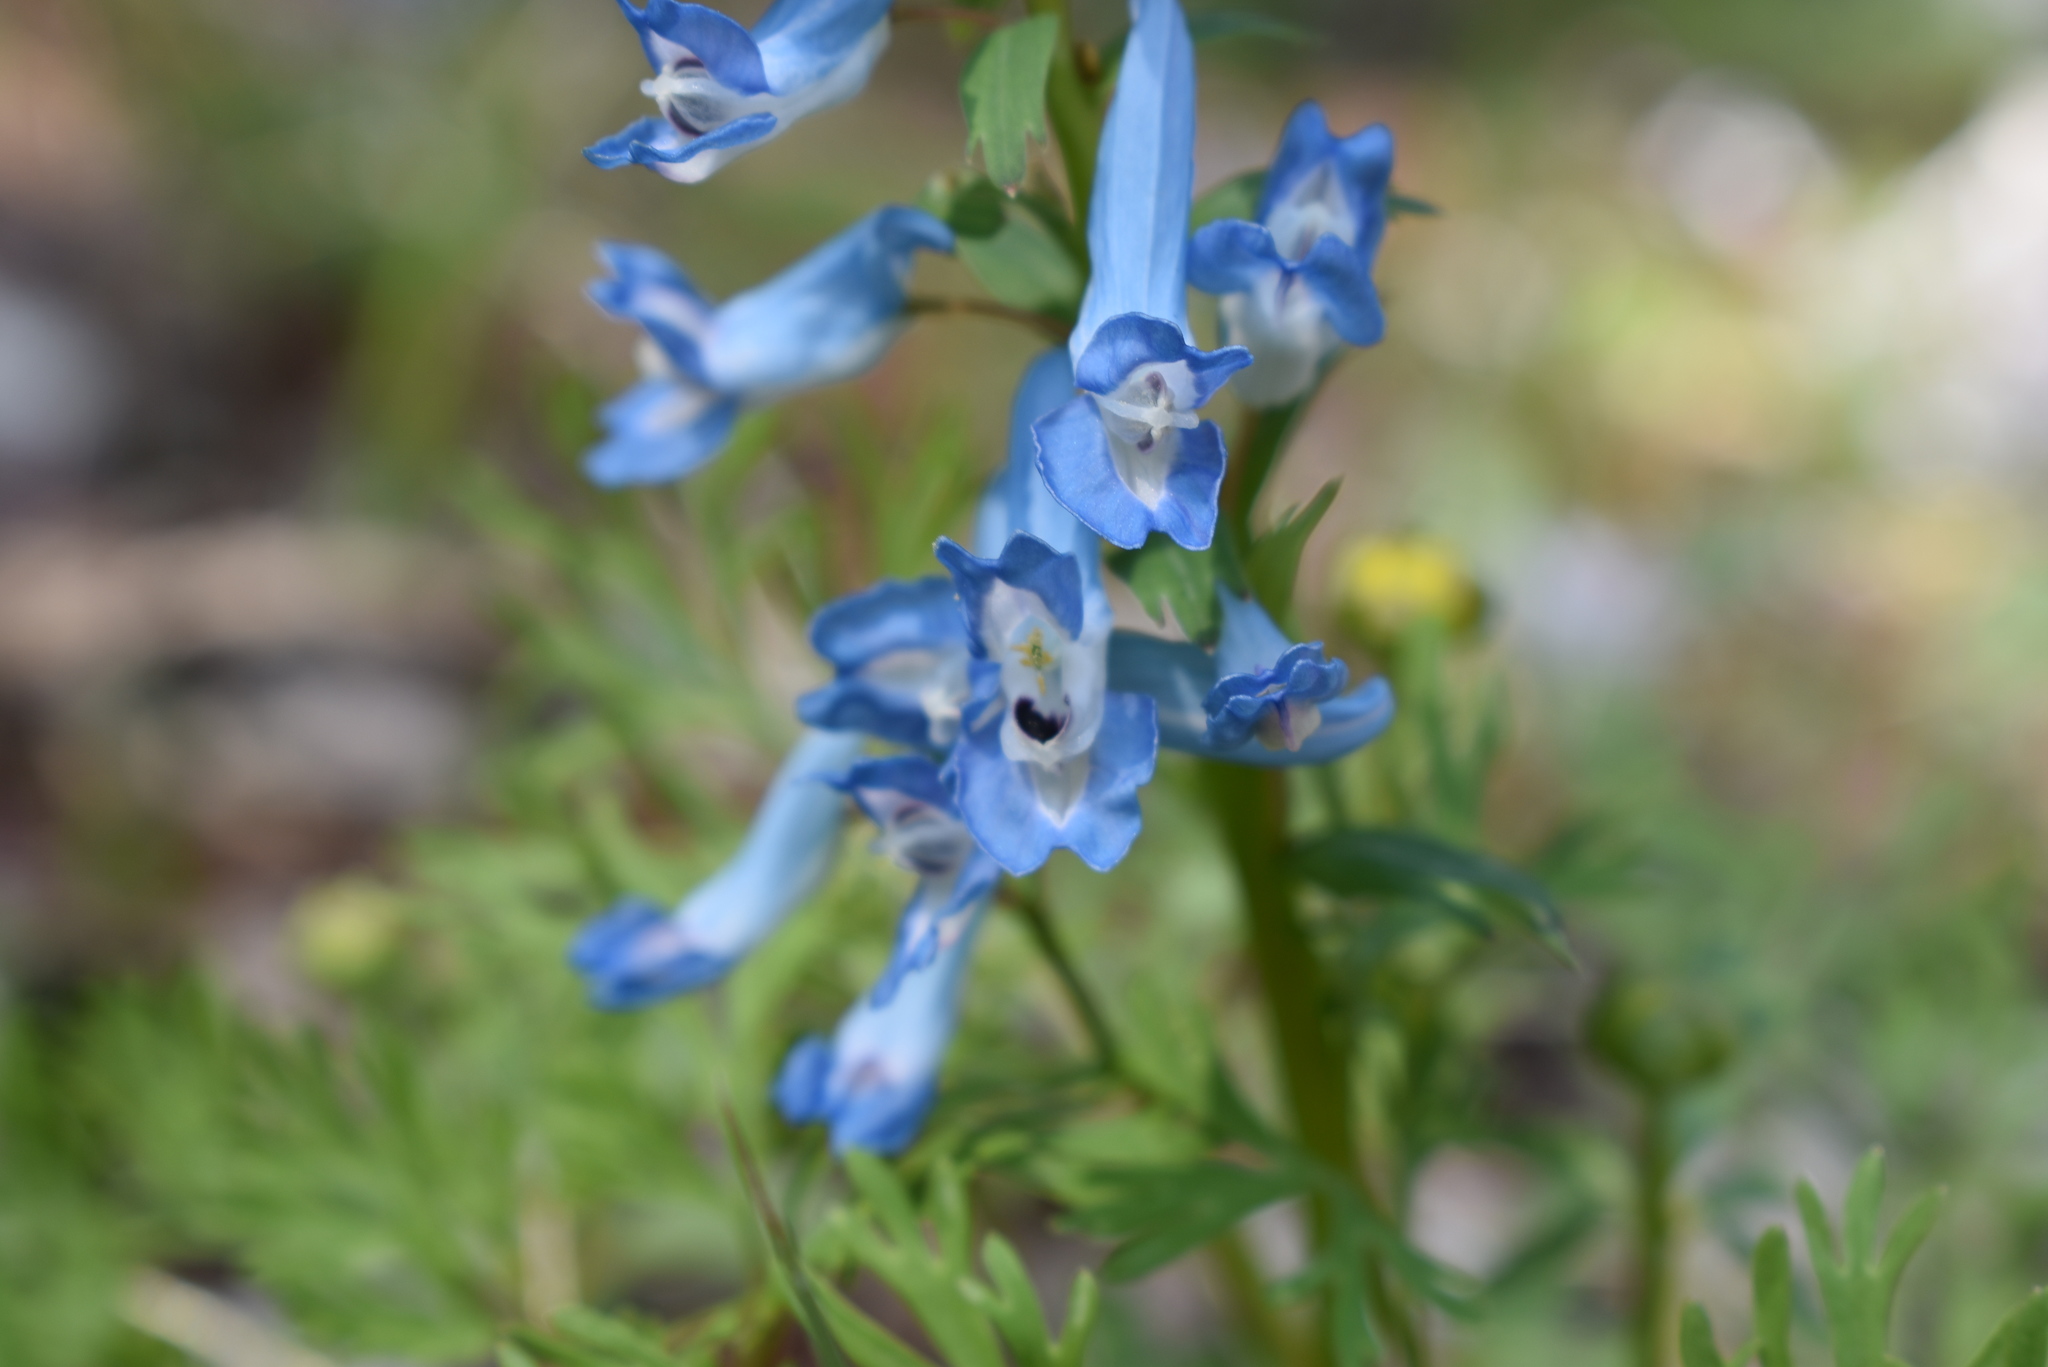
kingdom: Plantae
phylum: Tracheophyta
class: Magnoliopsida
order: Ranunculales
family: Papaveraceae
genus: Corydalis
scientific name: Corydalis fumariifolia
